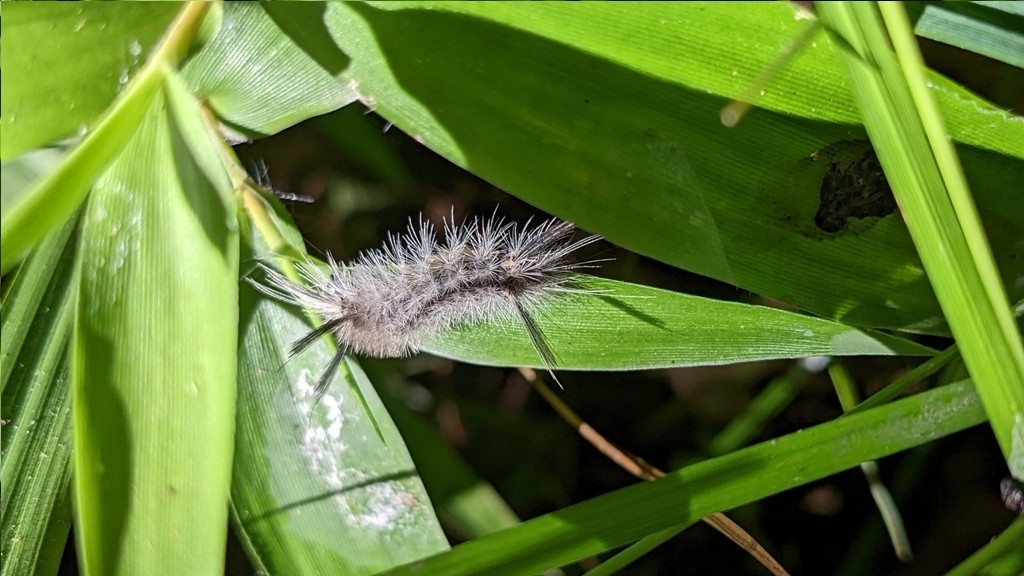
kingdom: Animalia
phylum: Arthropoda
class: Insecta
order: Lepidoptera
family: Erebidae
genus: Halysidota
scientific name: Halysidota tessellaris
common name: Banded tussock moth
